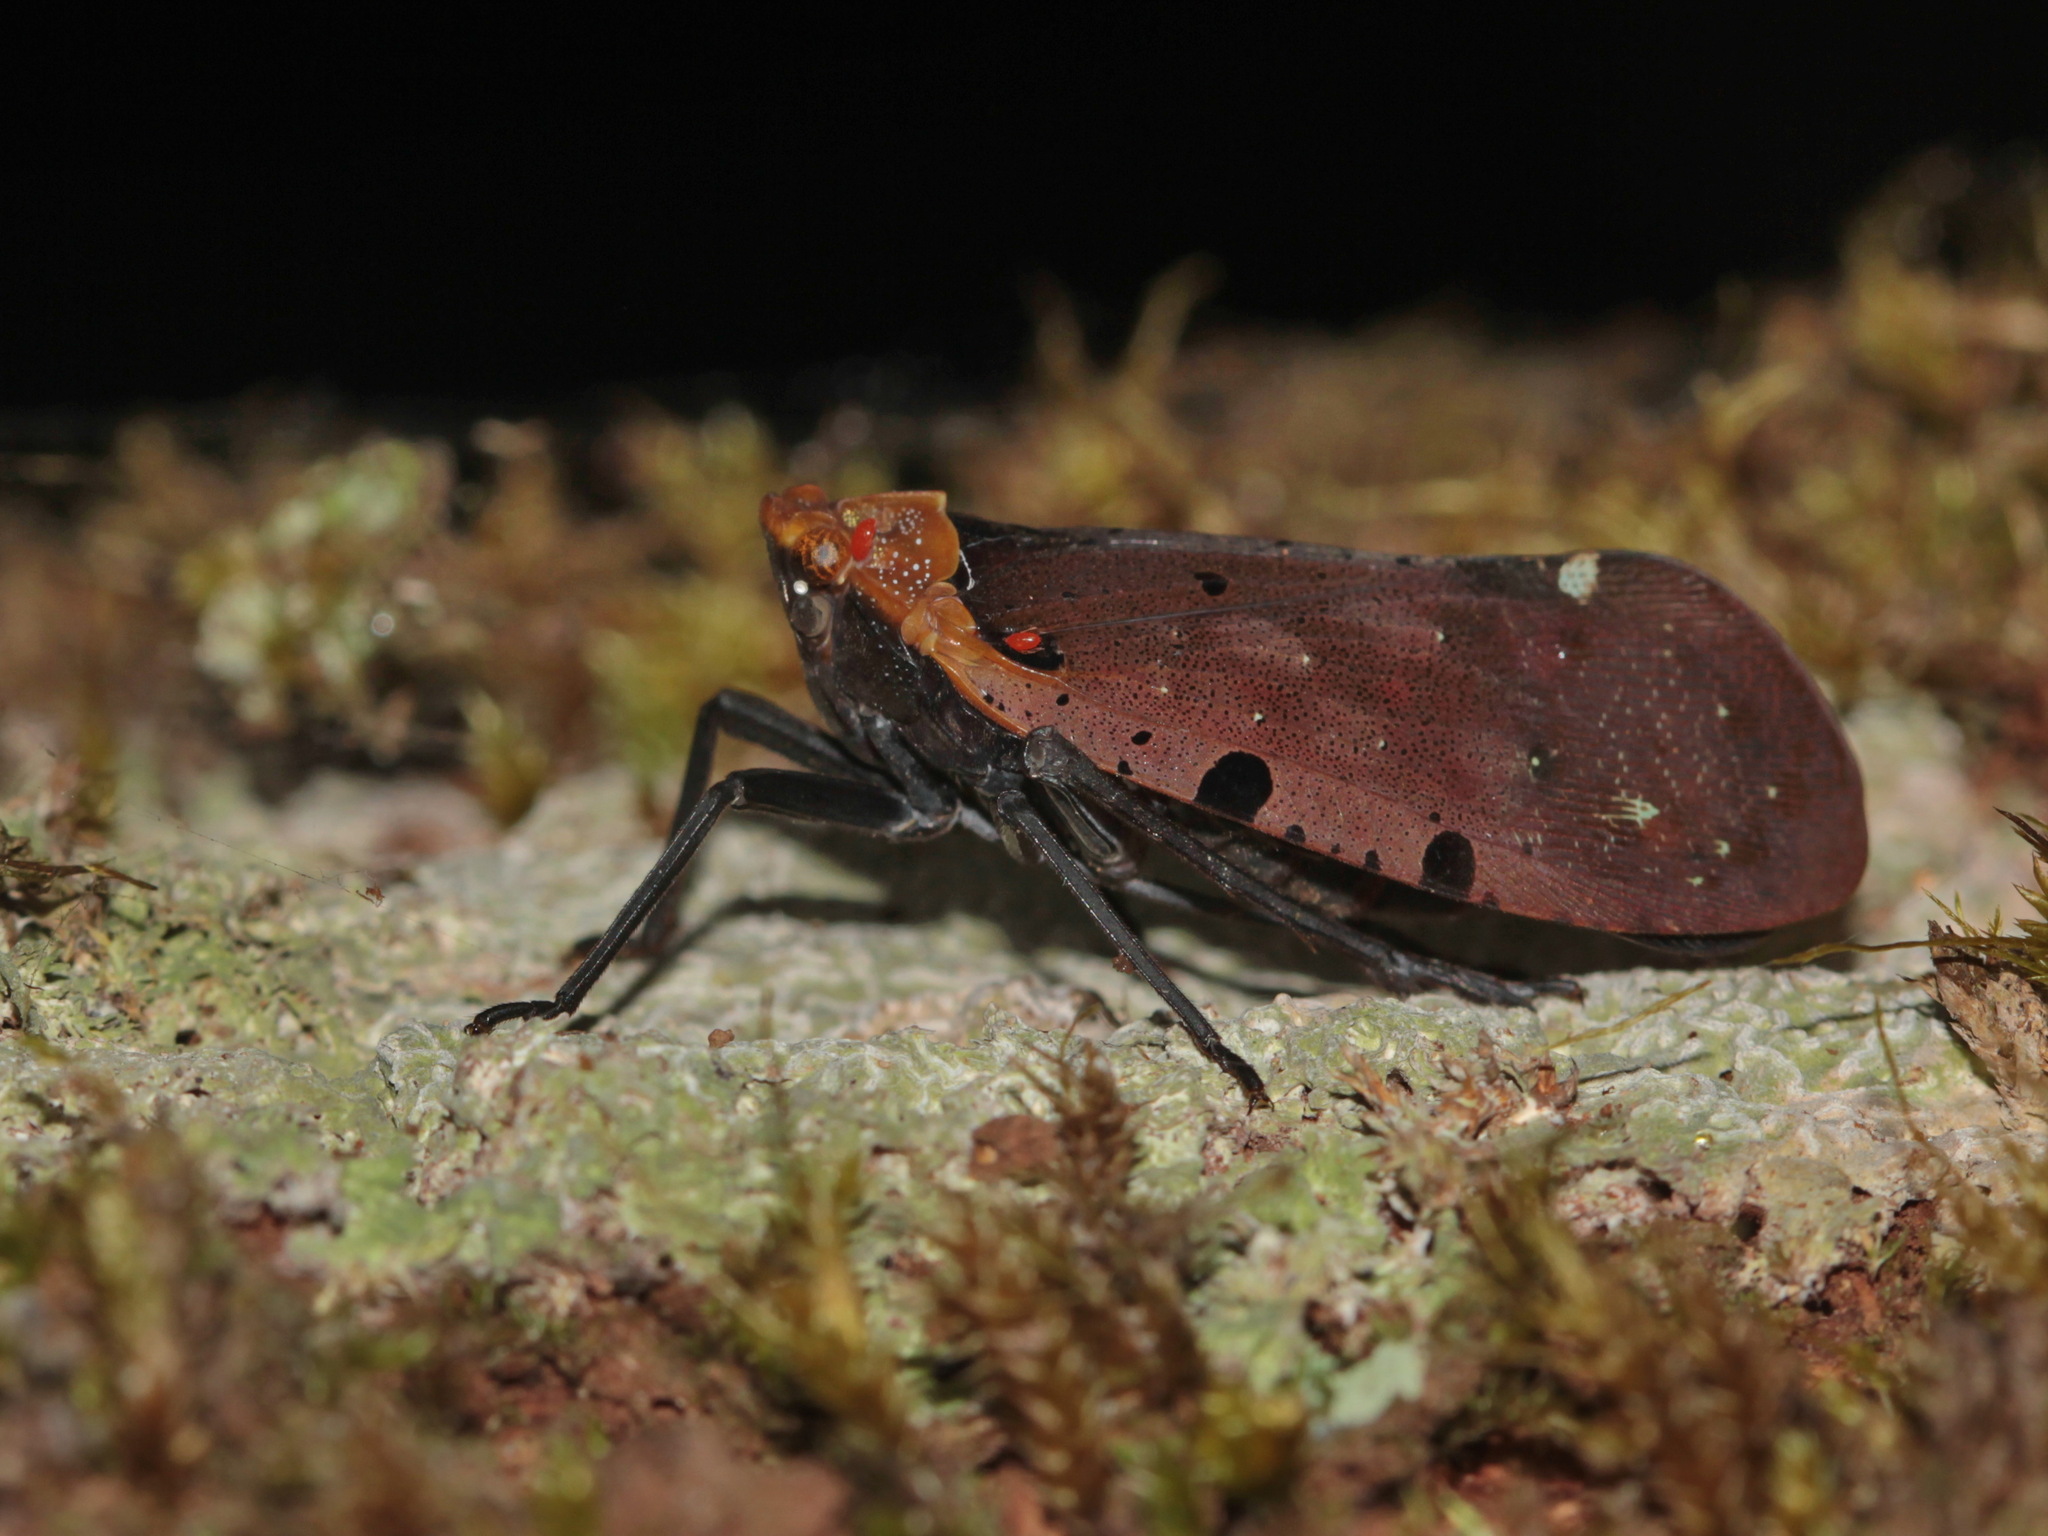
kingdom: Animalia
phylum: Arthropoda
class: Insecta
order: Hemiptera
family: Fulgoridae
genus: Penthicodes
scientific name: Penthicodes atomaria
